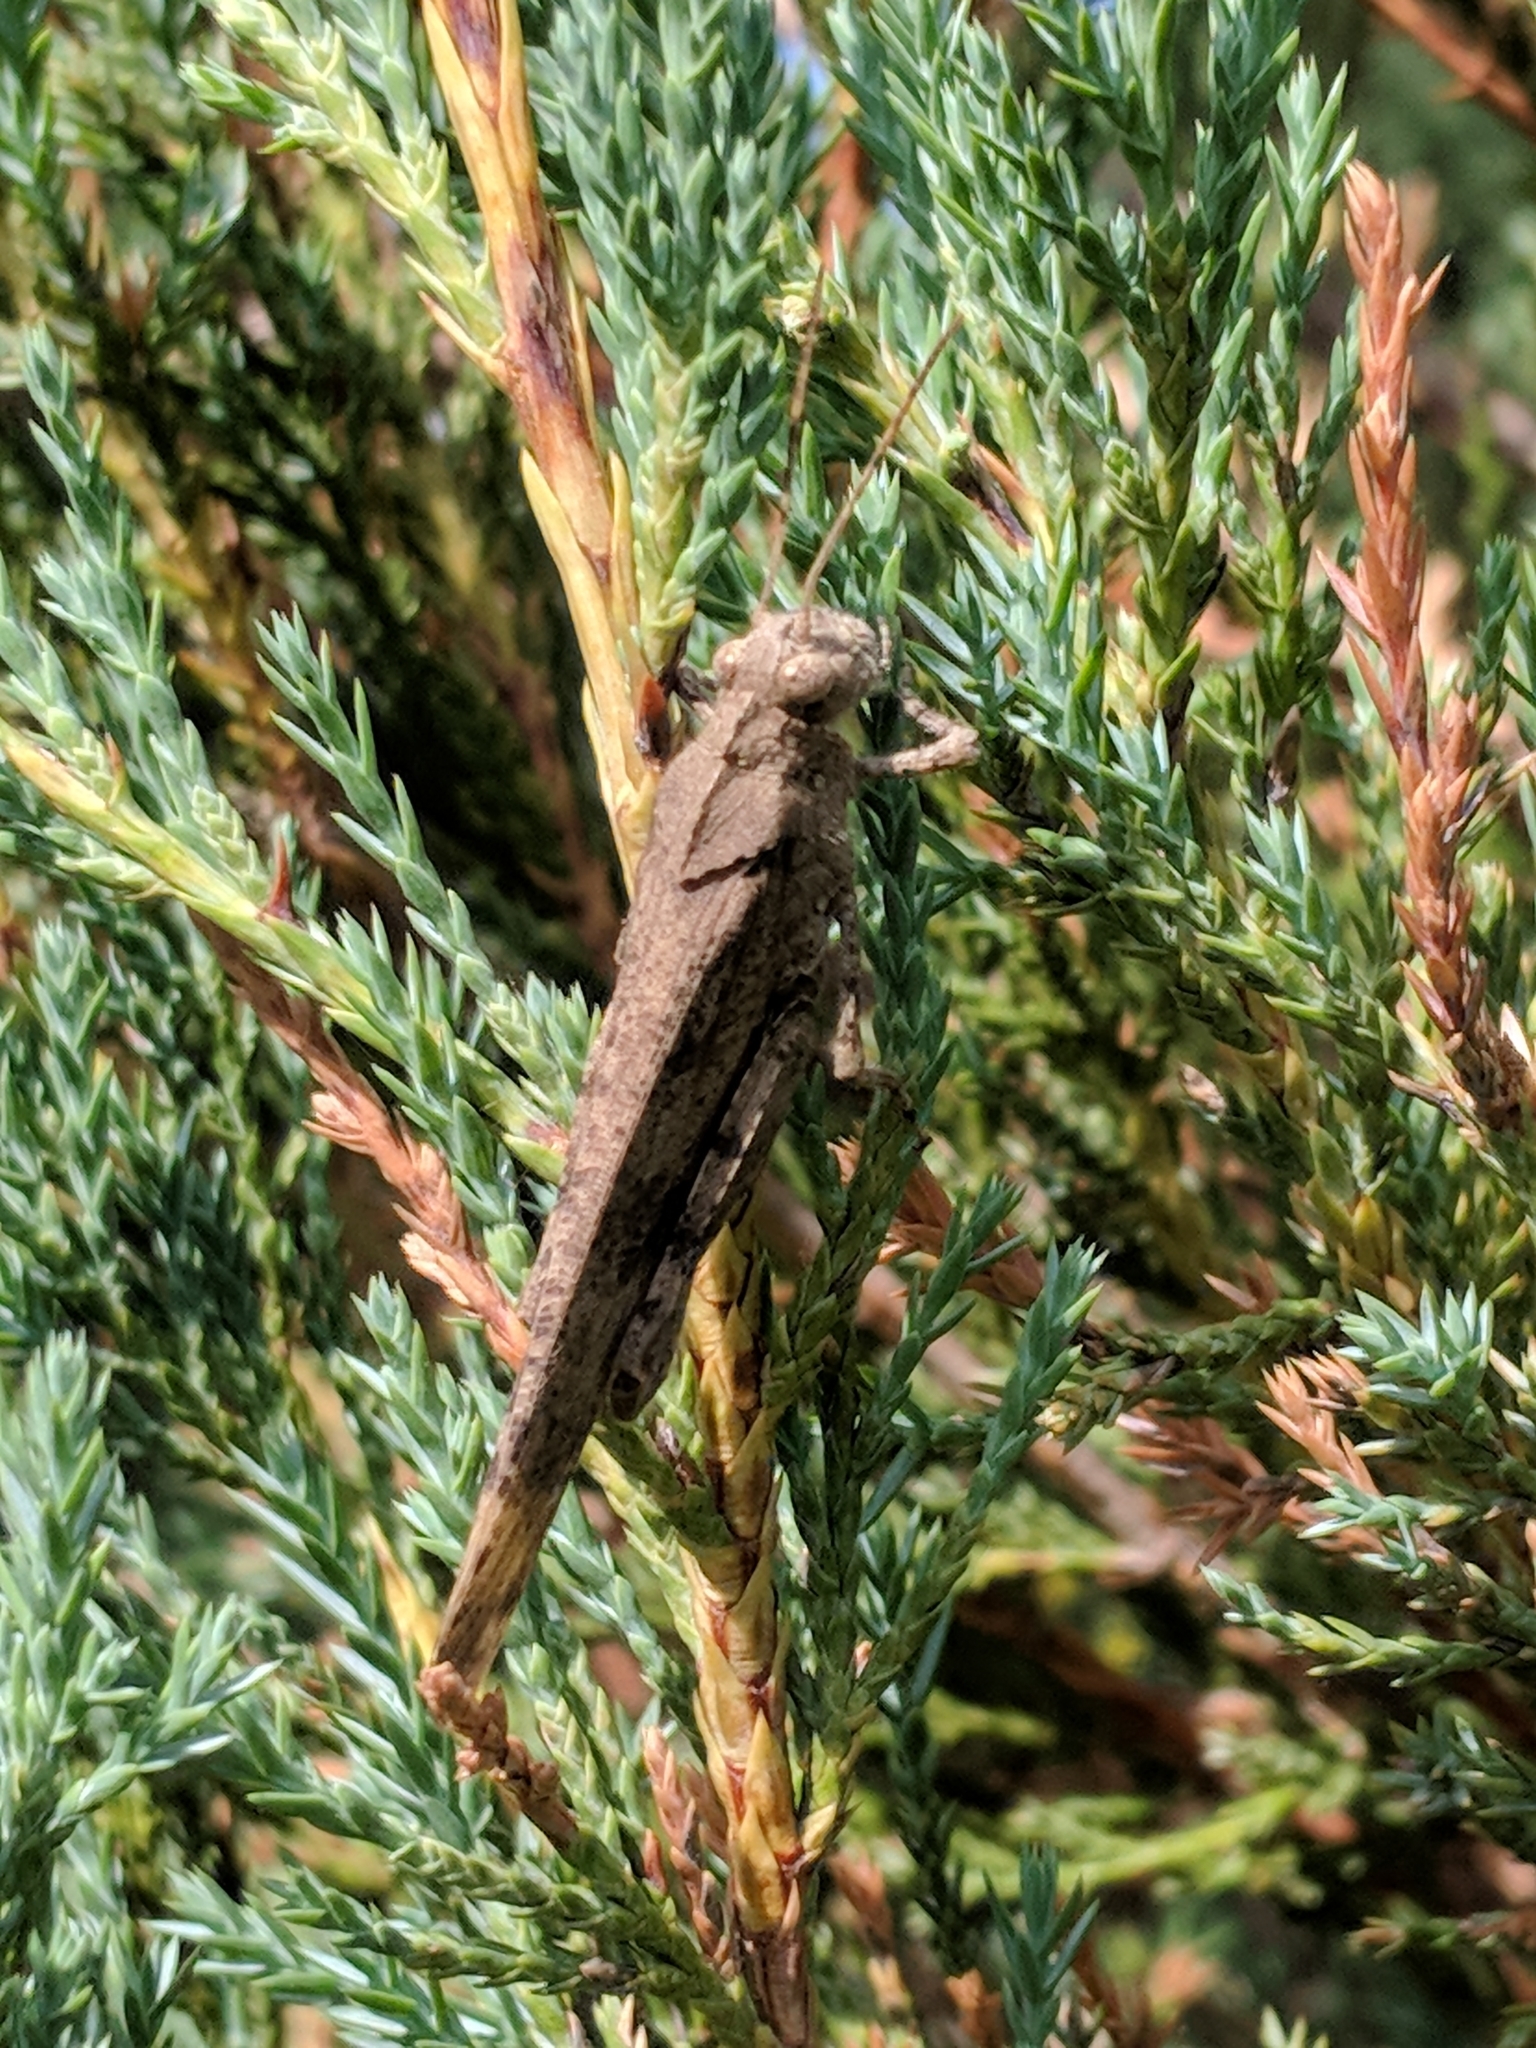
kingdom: Animalia
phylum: Arthropoda
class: Insecta
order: Orthoptera
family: Acrididae
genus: Dissosteira
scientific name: Dissosteira carolina
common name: Carolina grasshopper
